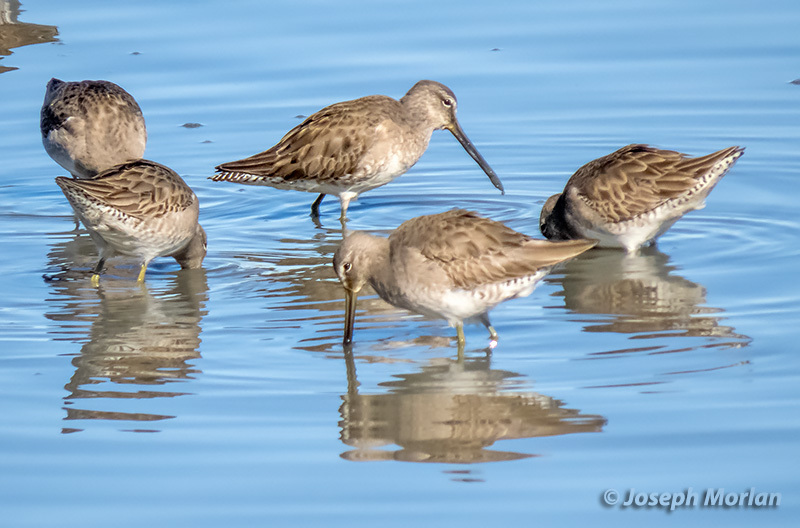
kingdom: Animalia
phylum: Chordata
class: Aves
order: Charadriiformes
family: Scolopacidae
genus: Limnodromus
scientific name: Limnodromus scolopaceus
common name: Long-billed dowitcher
